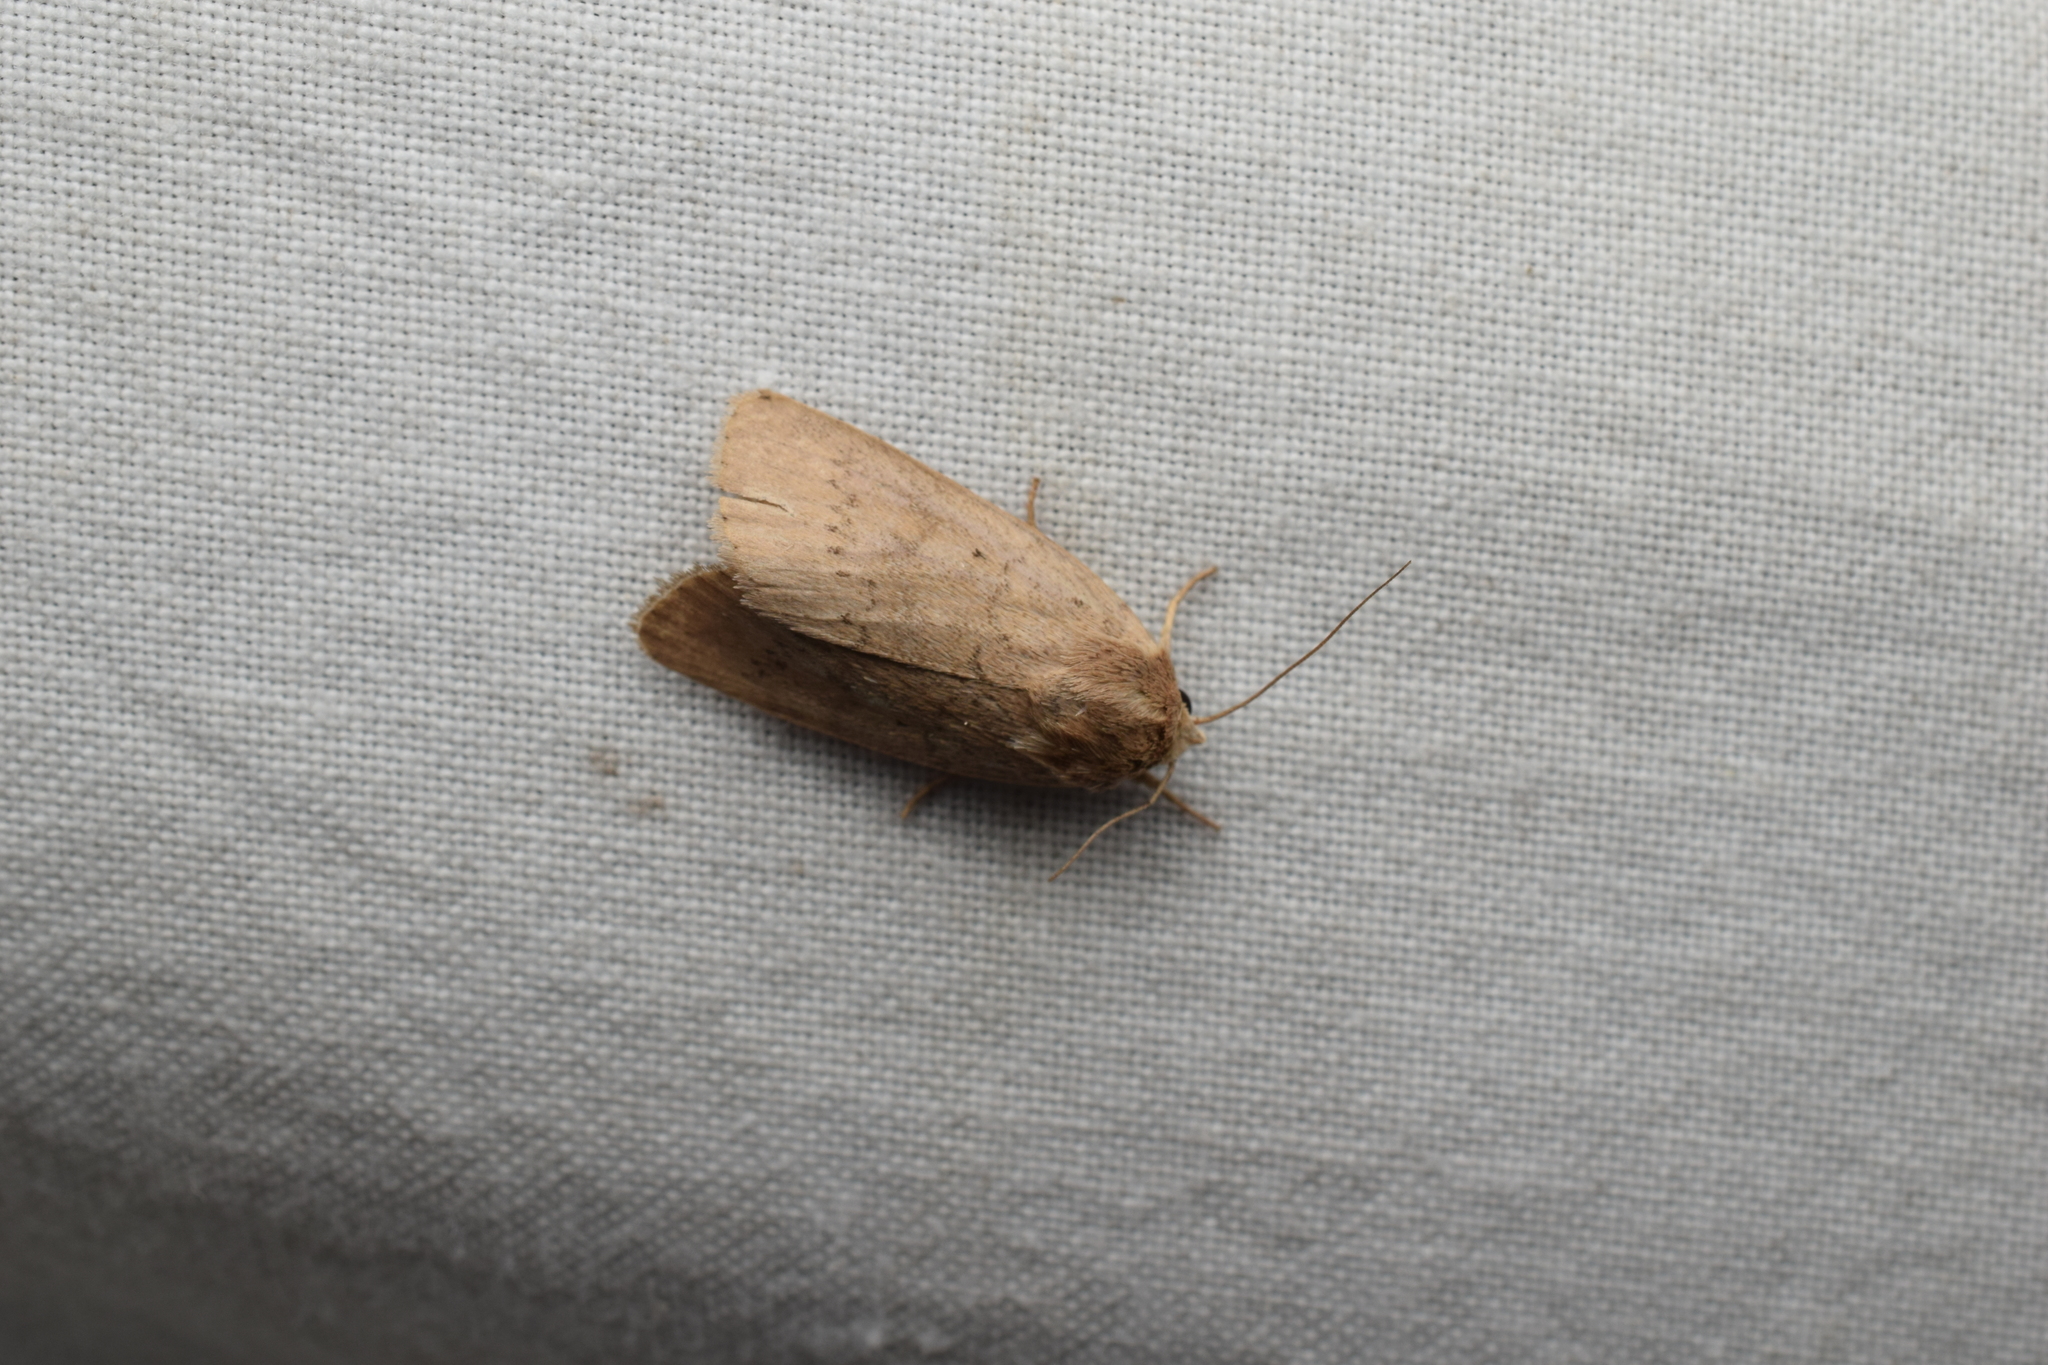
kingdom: Animalia
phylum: Arthropoda
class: Insecta
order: Lepidoptera
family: Noctuidae
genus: Athetis
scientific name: Athetis cinerascens
